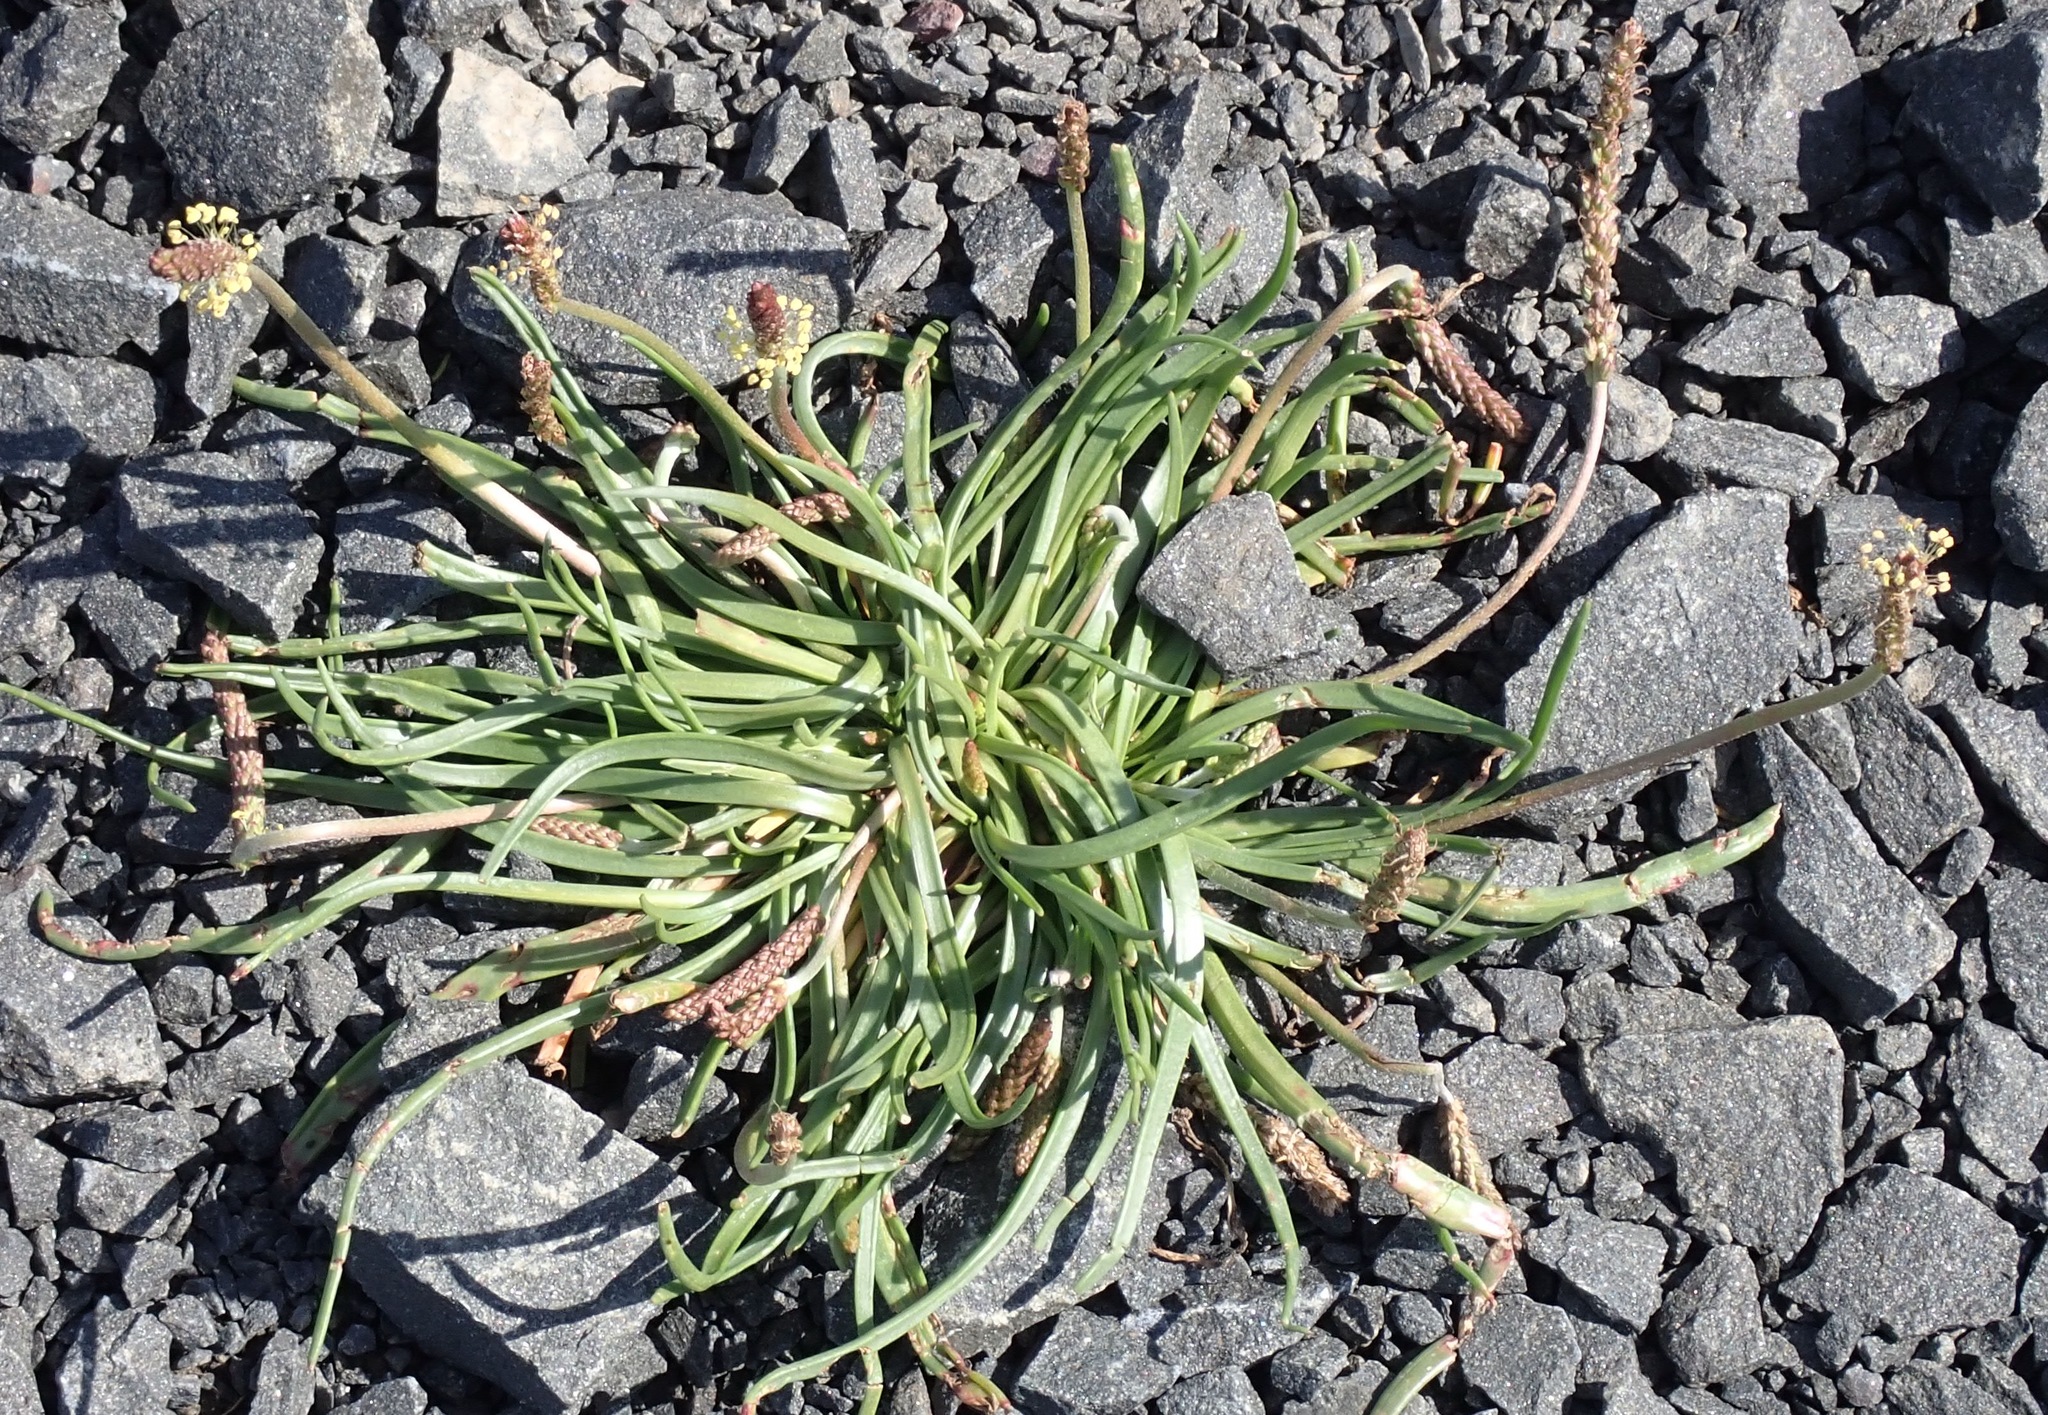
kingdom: Plantae
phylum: Tracheophyta
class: Magnoliopsida
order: Lamiales
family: Plantaginaceae
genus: Plantago
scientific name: Plantago maritima
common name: Sea plantain
